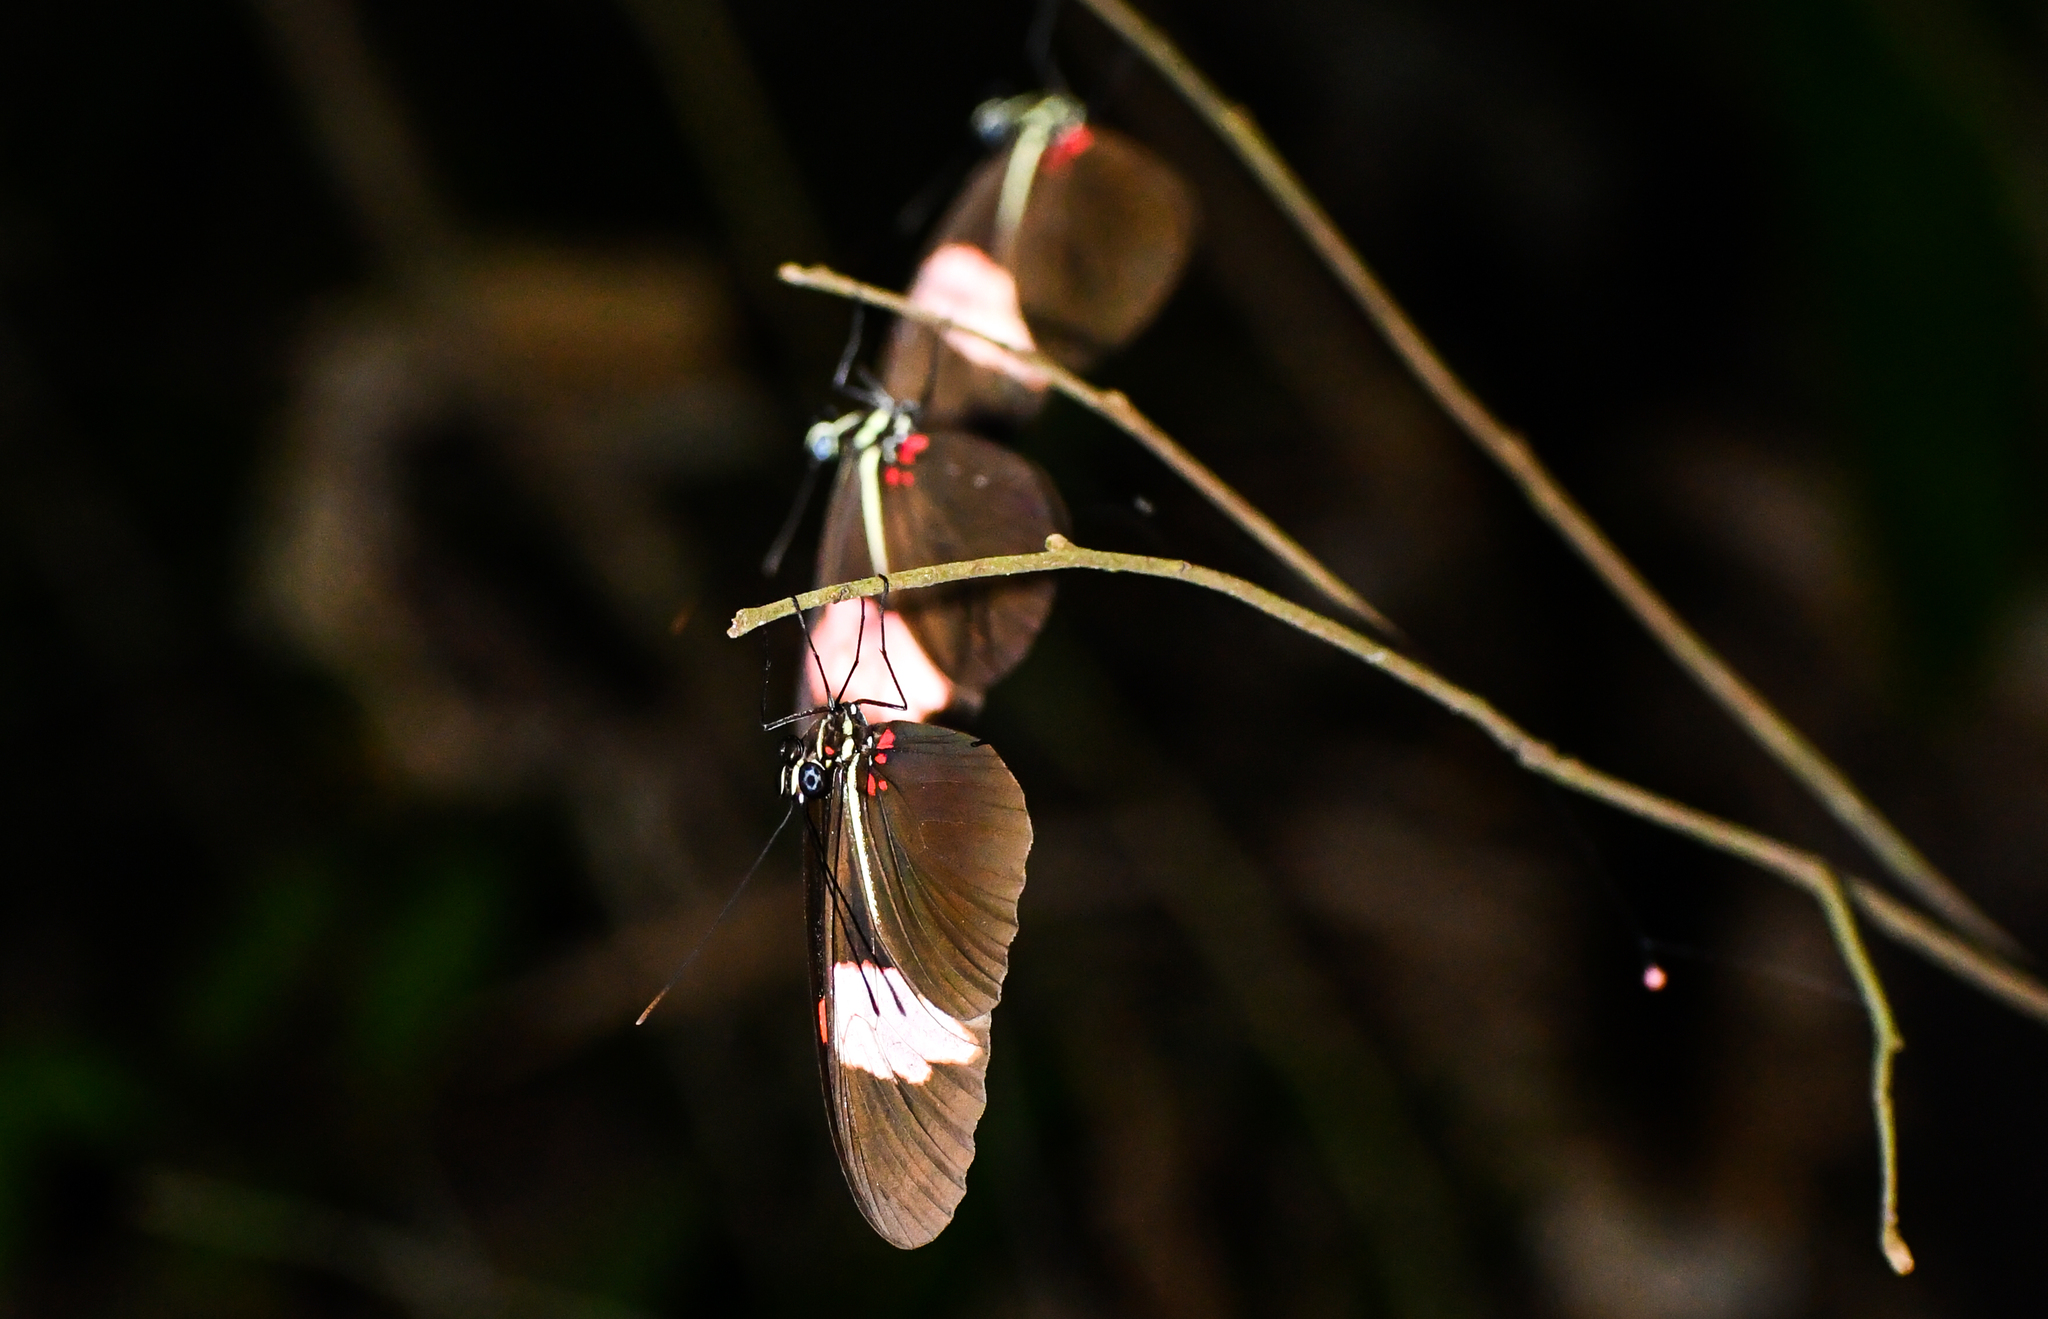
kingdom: Animalia
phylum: Arthropoda
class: Insecta
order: Lepidoptera
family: Nymphalidae
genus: Heliconius
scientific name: Heliconius erato
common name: Common patch longwing
